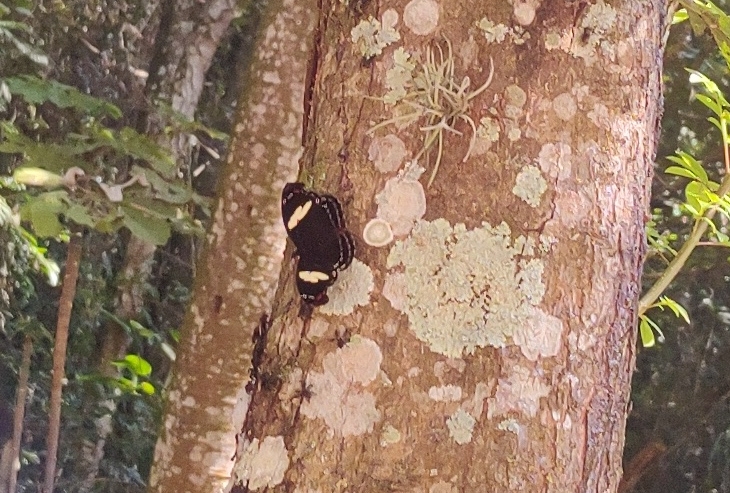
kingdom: Animalia
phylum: Arthropoda
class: Insecta
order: Lepidoptera
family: Nymphalidae
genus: Catonephele
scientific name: Catonephele numilia
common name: Blue-frosted banner
